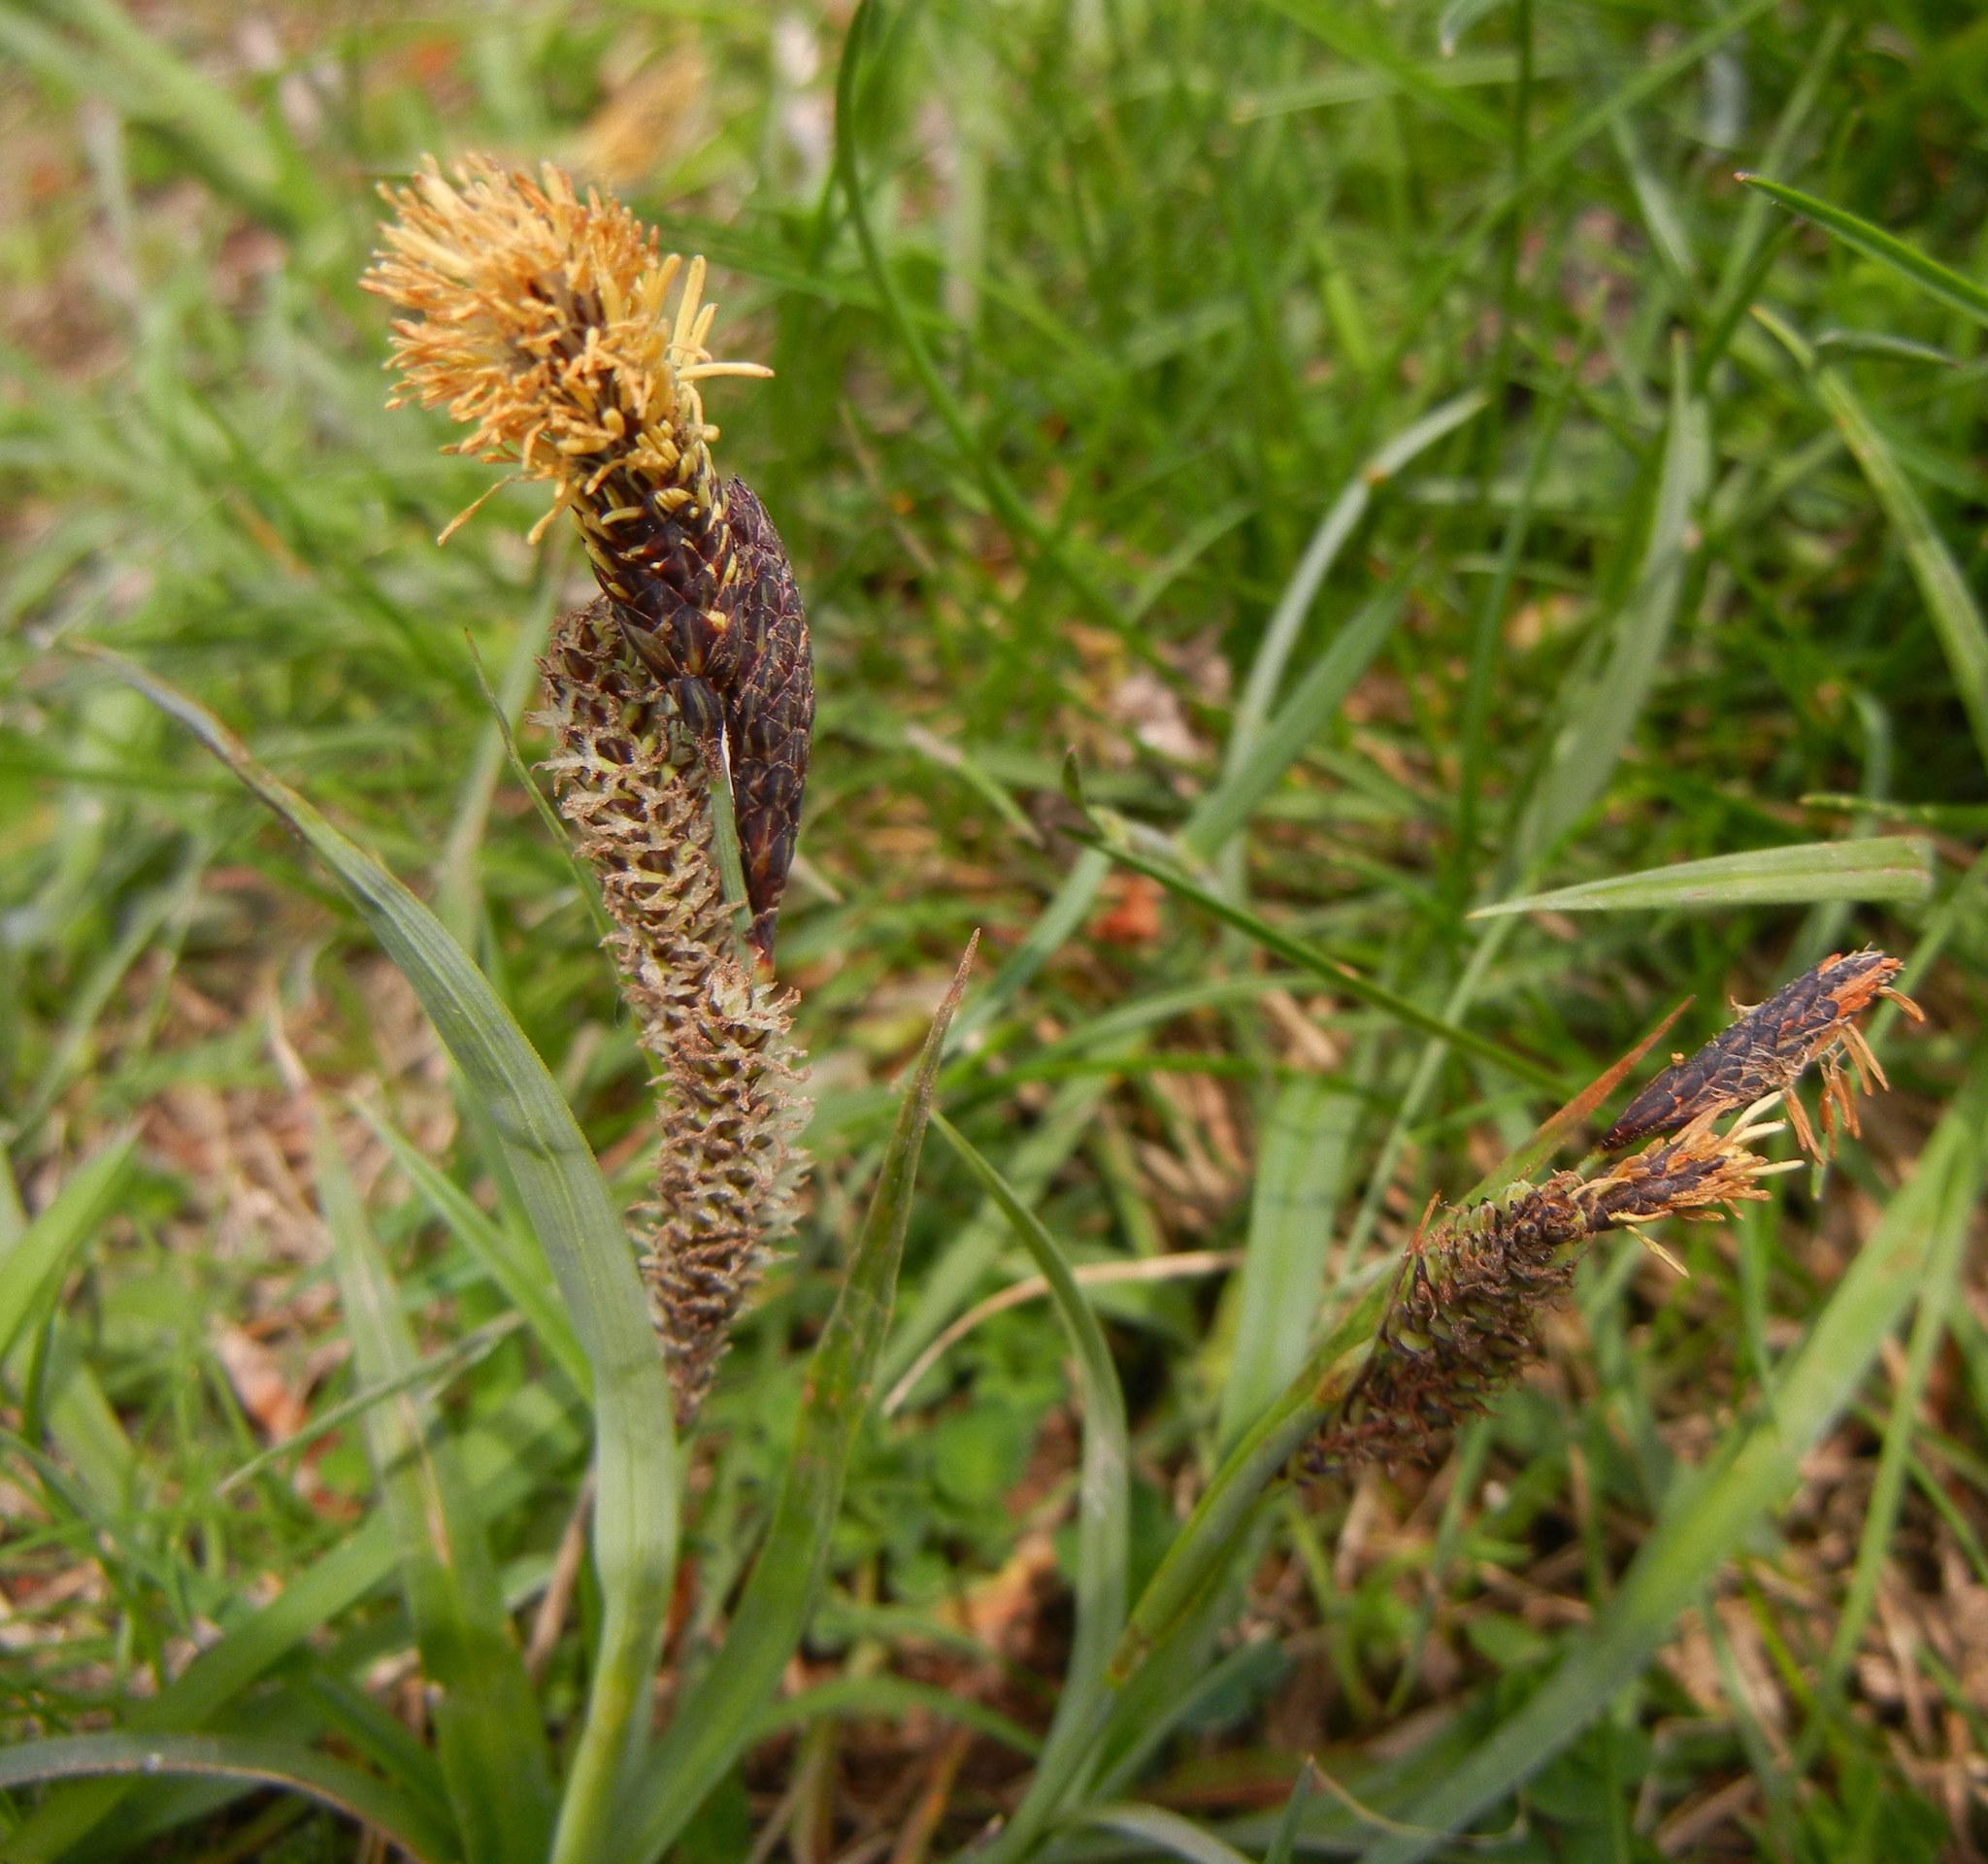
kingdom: Plantae
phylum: Tracheophyta
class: Liliopsida
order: Poales
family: Cyperaceae
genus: Carex
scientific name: Carex flacca
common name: Glaucous sedge
